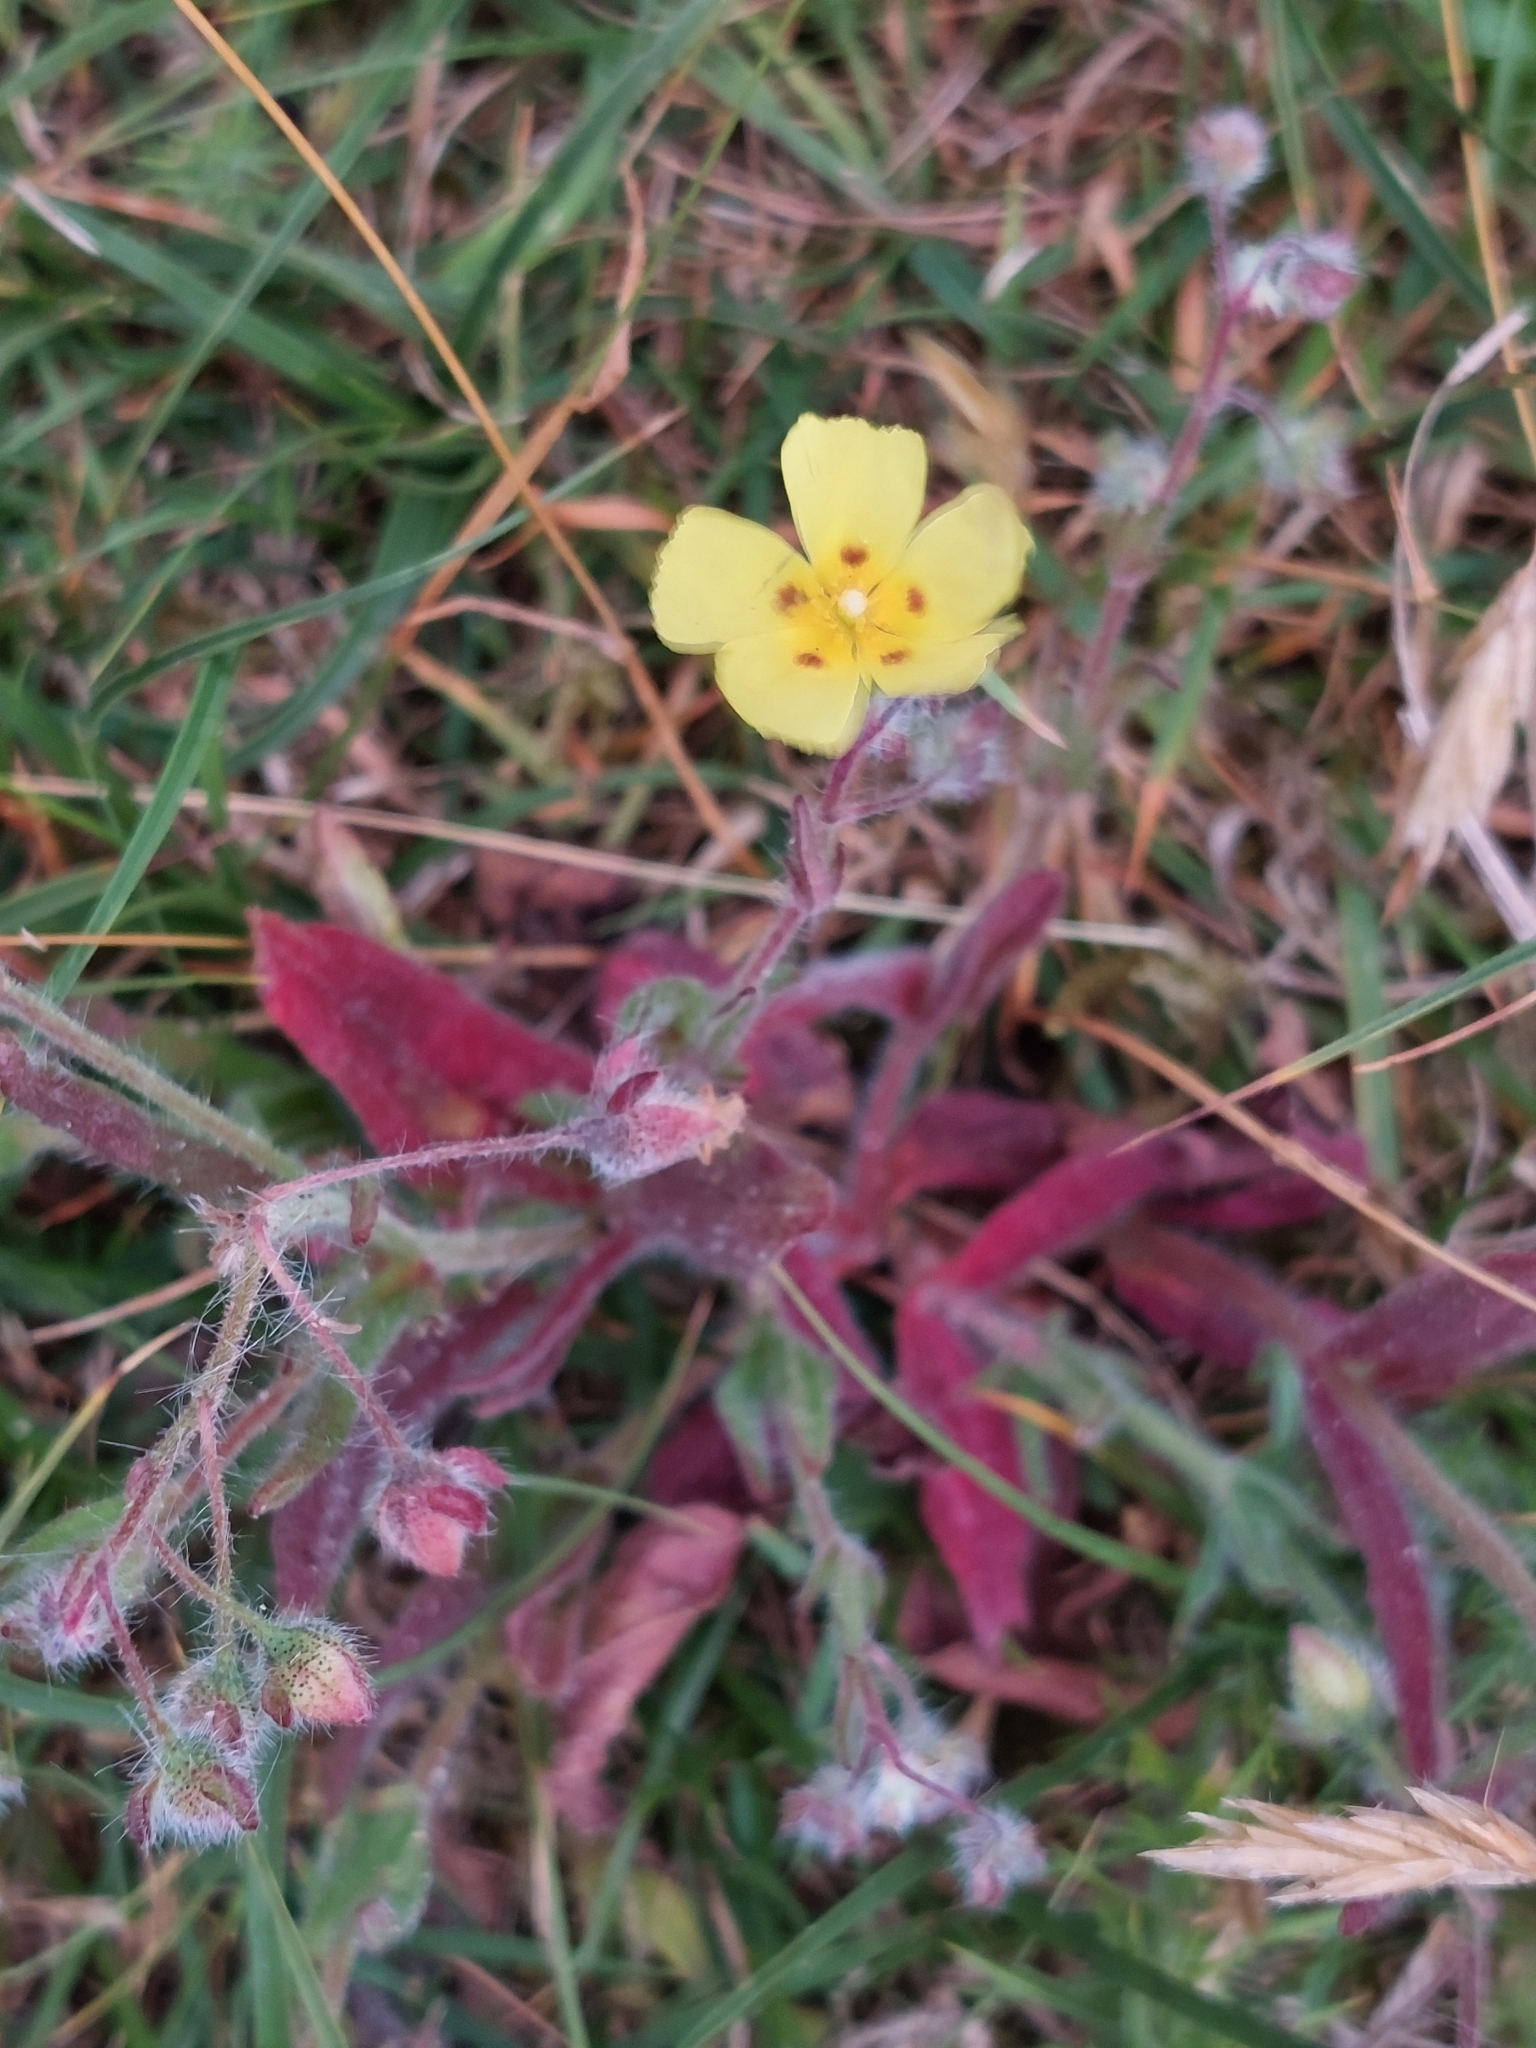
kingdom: Plantae
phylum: Tracheophyta
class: Magnoliopsida
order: Malvales
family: Cistaceae
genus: Tuberaria
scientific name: Tuberaria guttata
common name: Spotted rock-rose
